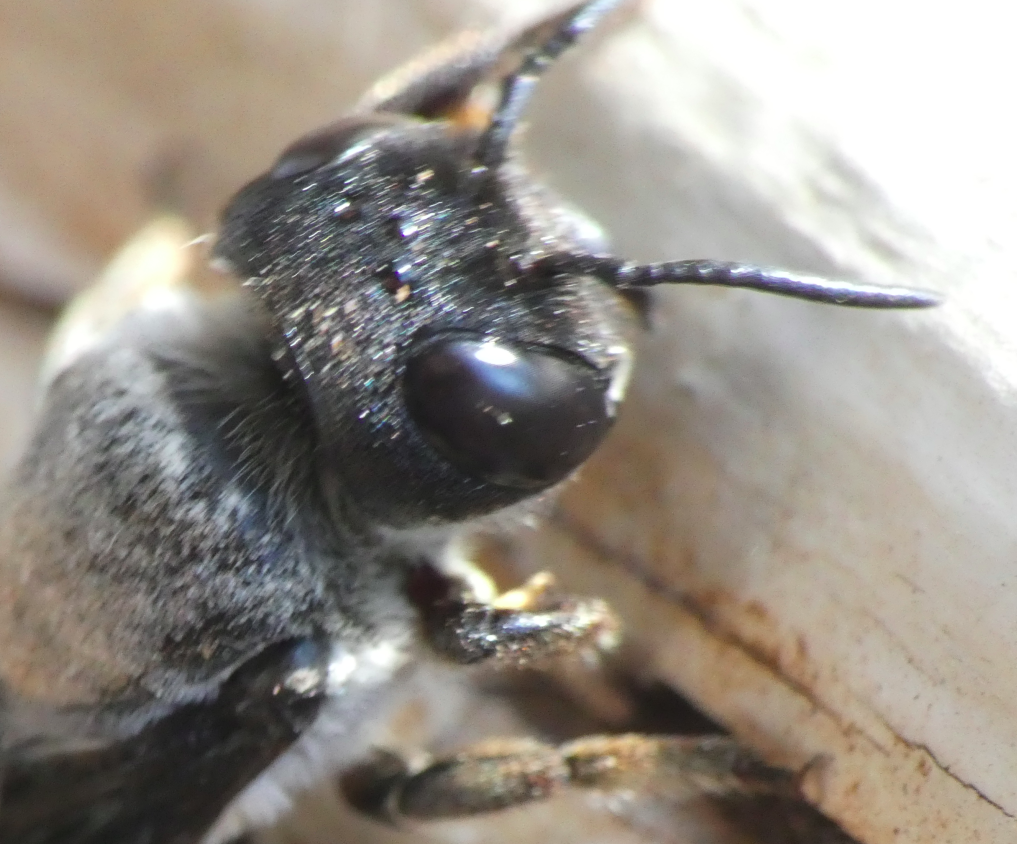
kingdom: Animalia
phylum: Arthropoda
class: Insecta
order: Hymenoptera
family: Megachilidae
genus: Megachile
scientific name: Megachile chrysorrhoea
